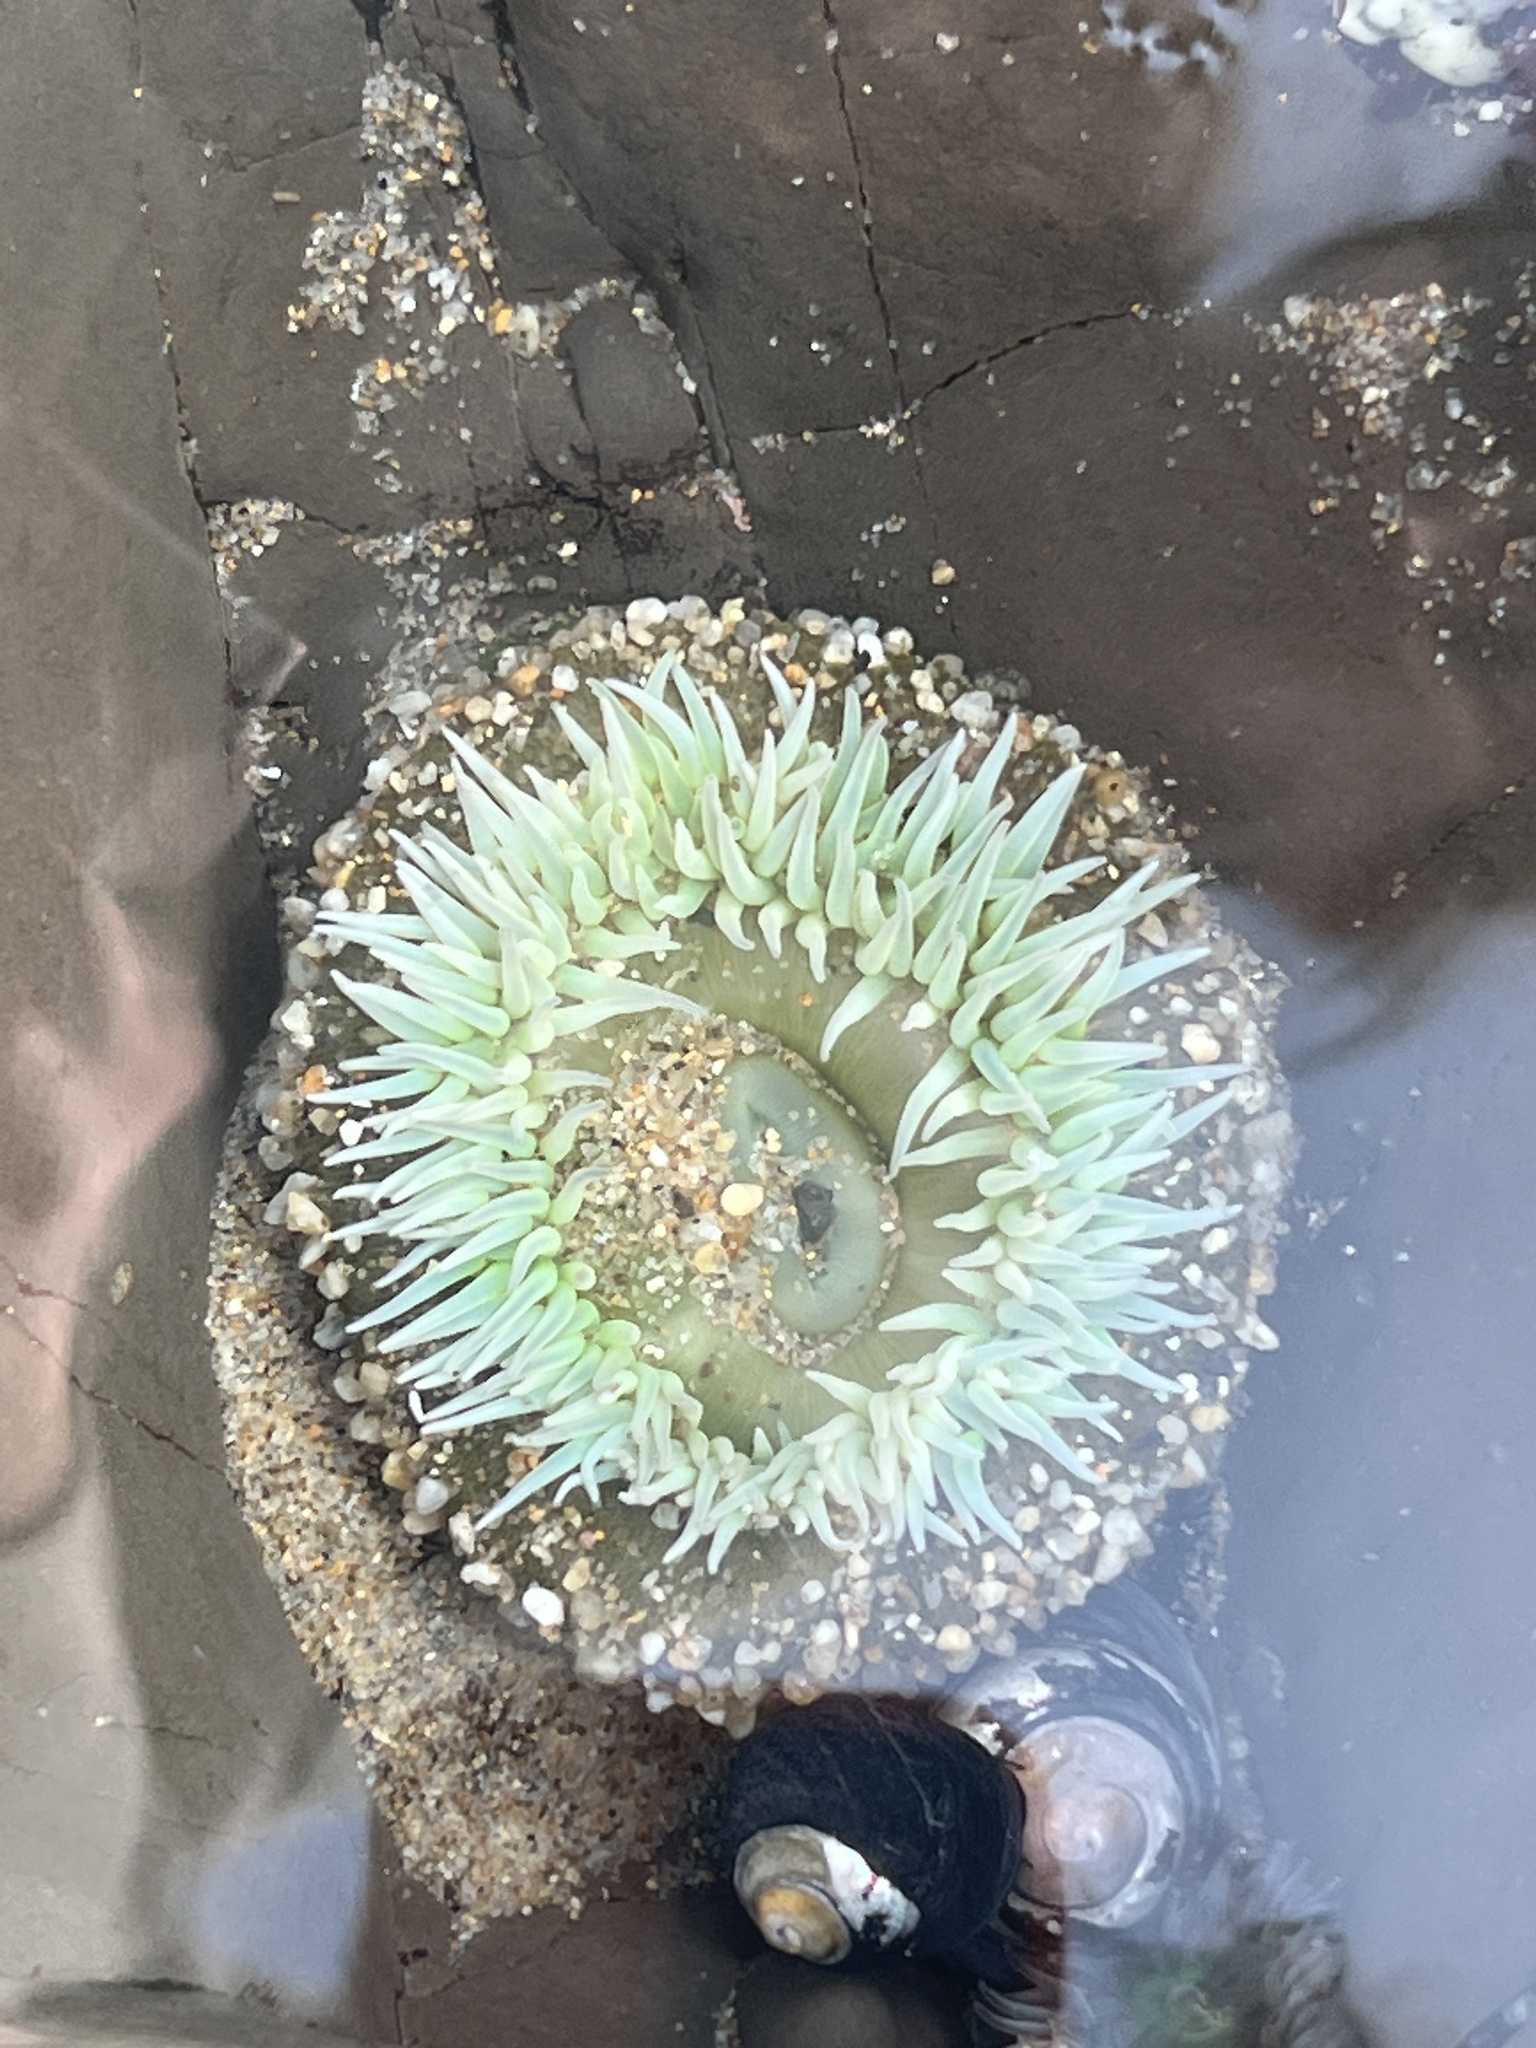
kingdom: Animalia
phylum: Cnidaria
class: Anthozoa
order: Actiniaria
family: Actiniidae
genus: Anthopleura
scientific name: Anthopleura xanthogrammica
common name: Giant green anemone
